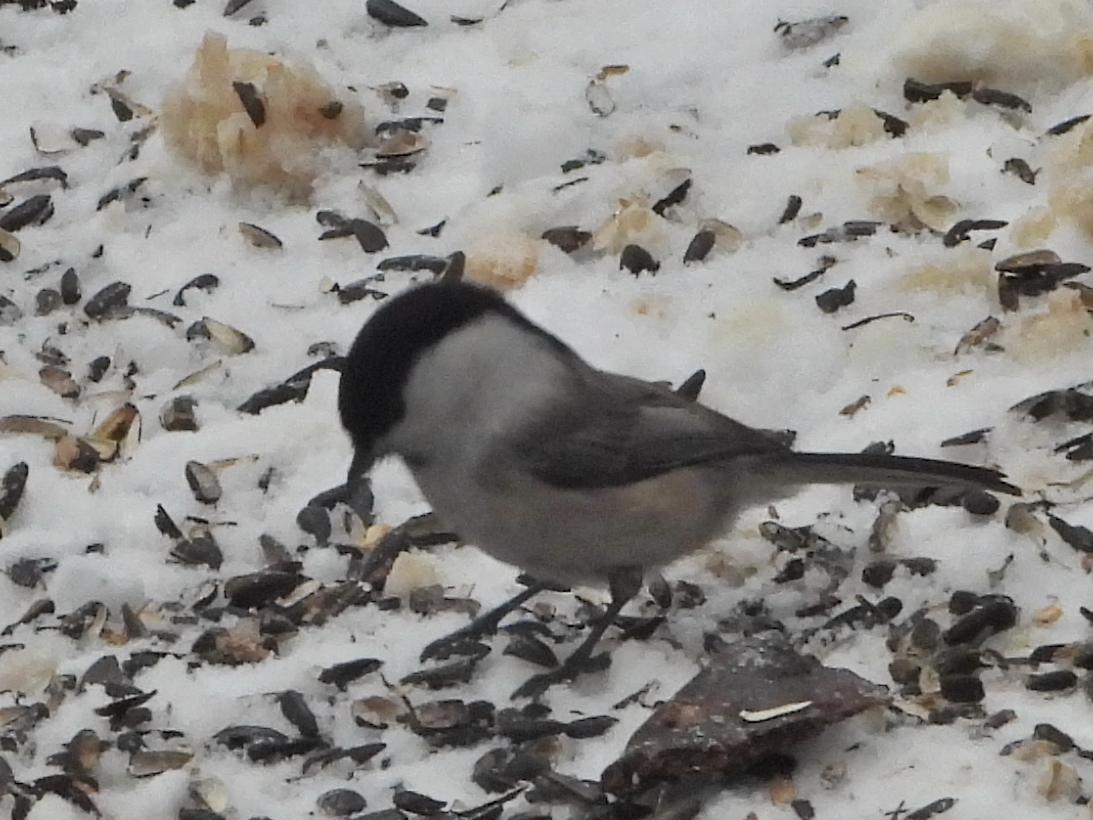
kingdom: Animalia
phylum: Chordata
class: Aves
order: Passeriformes
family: Paridae
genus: Poecile
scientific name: Poecile montanus
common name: Willow tit
